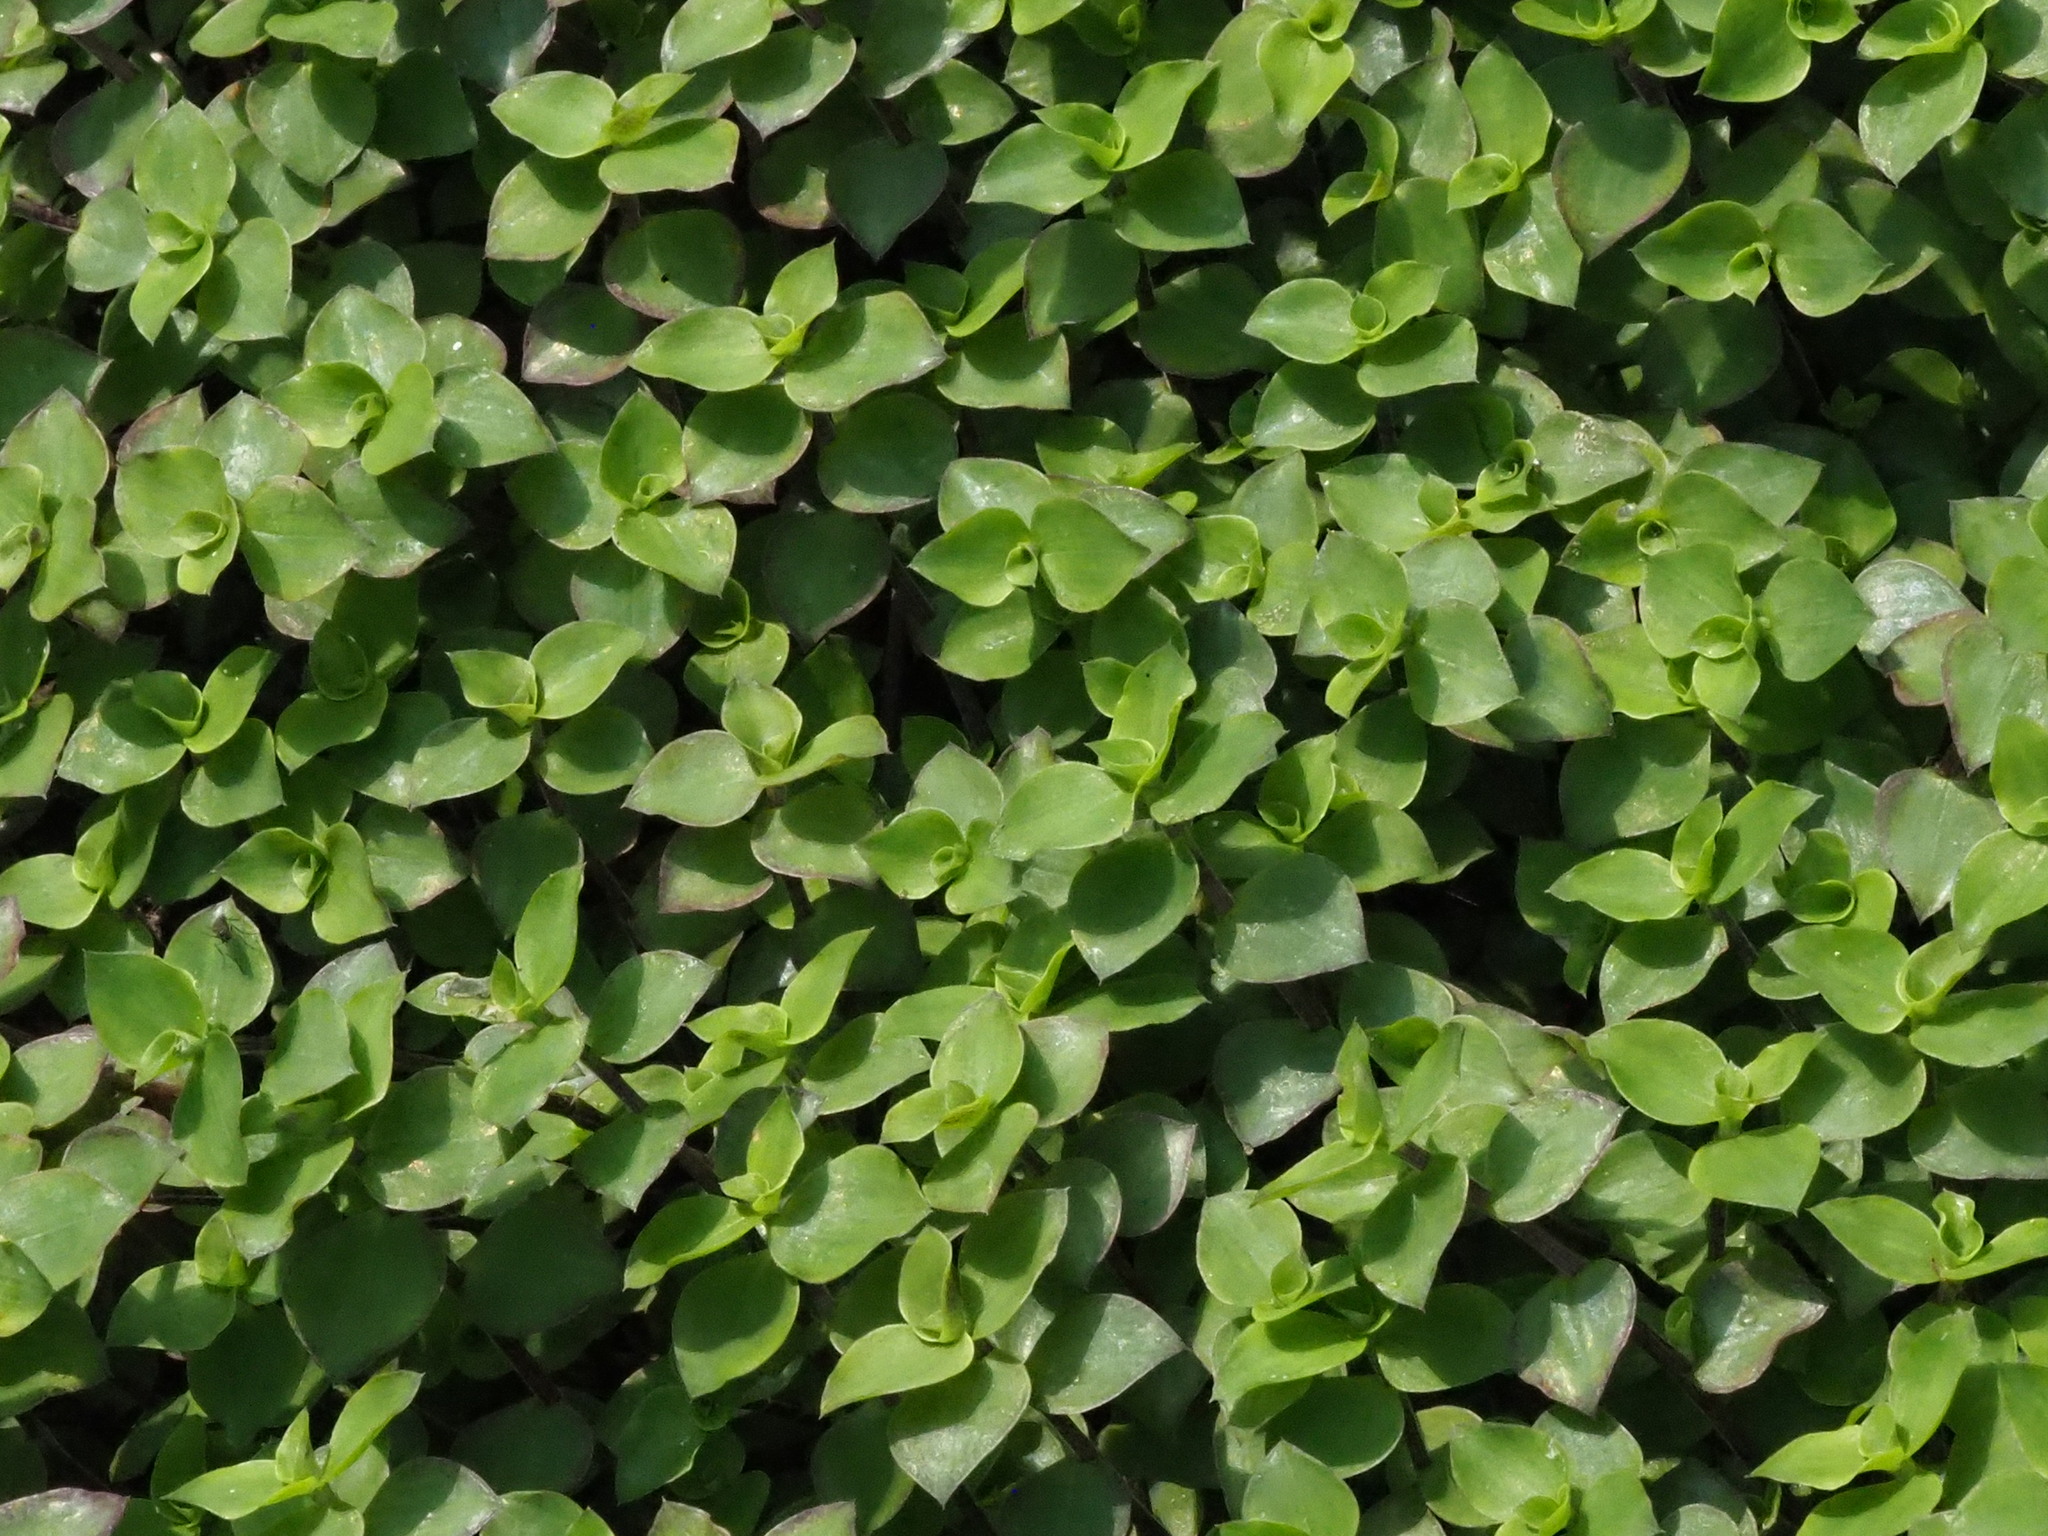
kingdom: Plantae
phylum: Tracheophyta
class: Liliopsida
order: Commelinales
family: Commelinaceae
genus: Callisia
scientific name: Callisia repens
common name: Creeping inchplant
